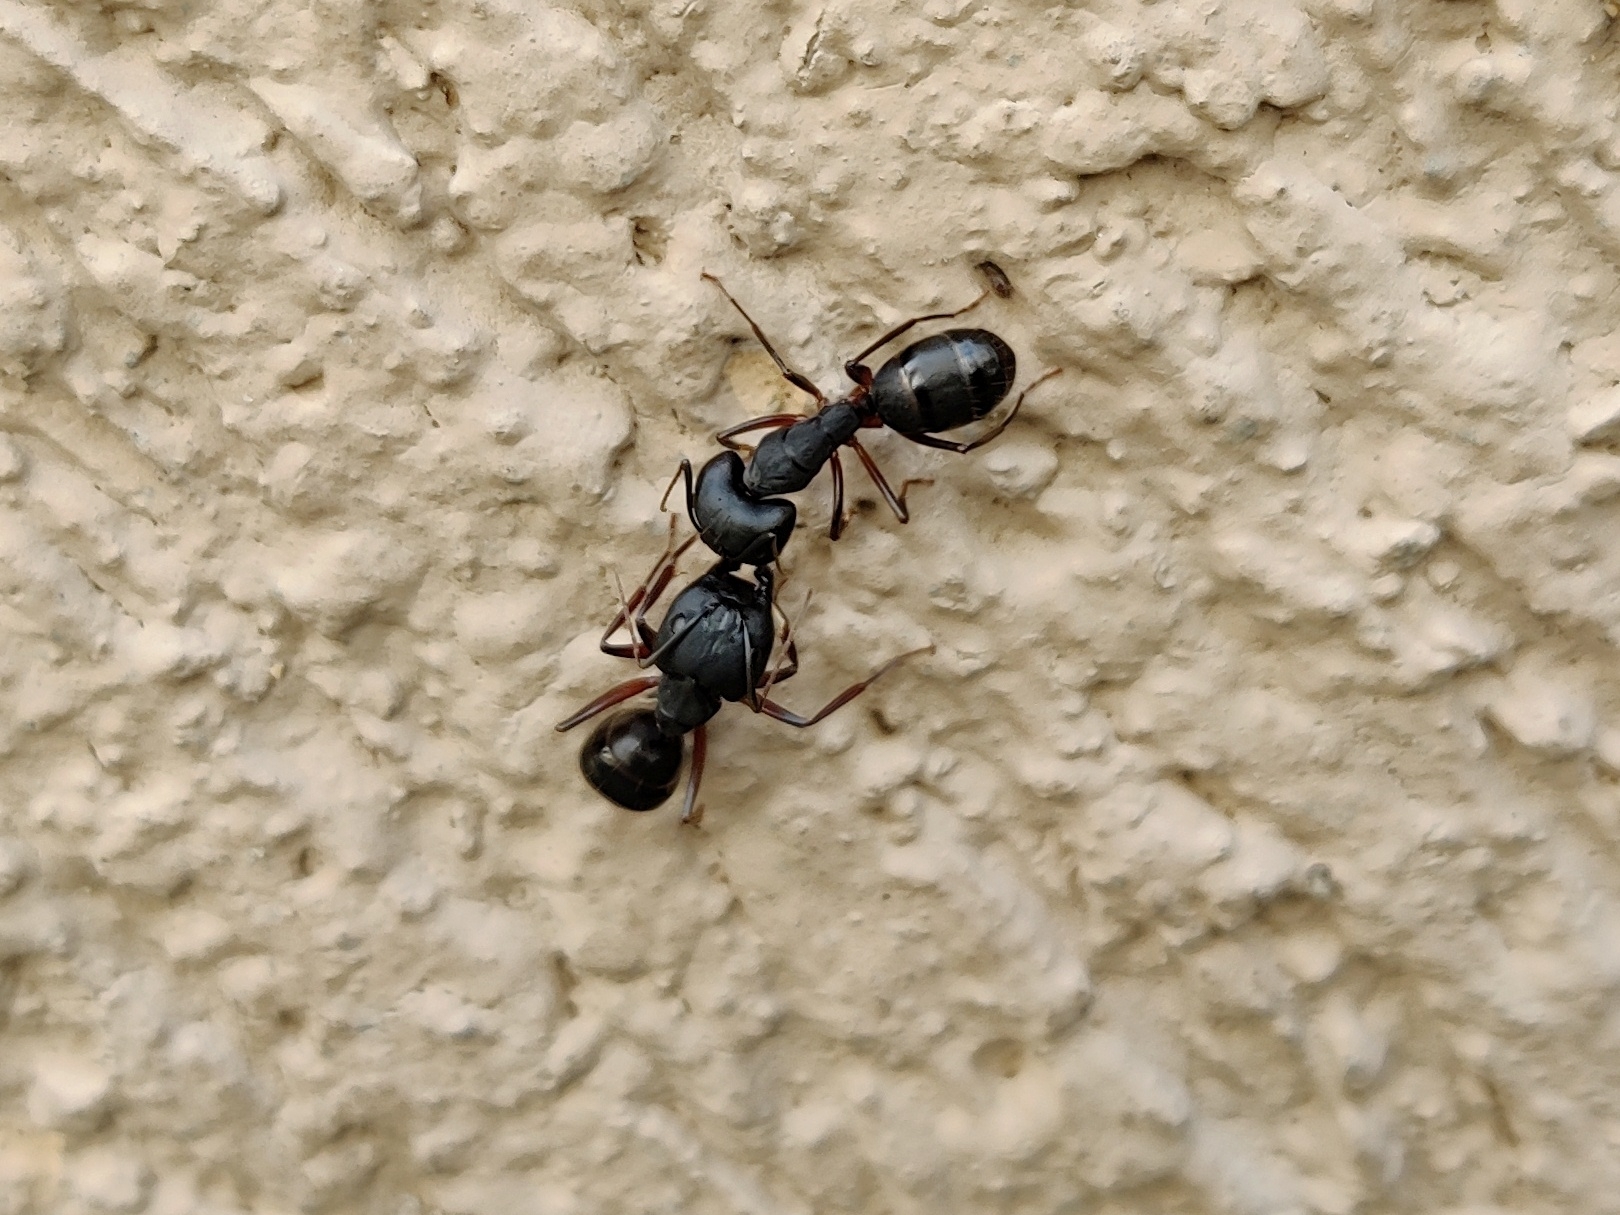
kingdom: Animalia
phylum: Arthropoda
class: Insecta
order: Hymenoptera
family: Formicidae
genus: Camponotus
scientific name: Camponotus compressus
